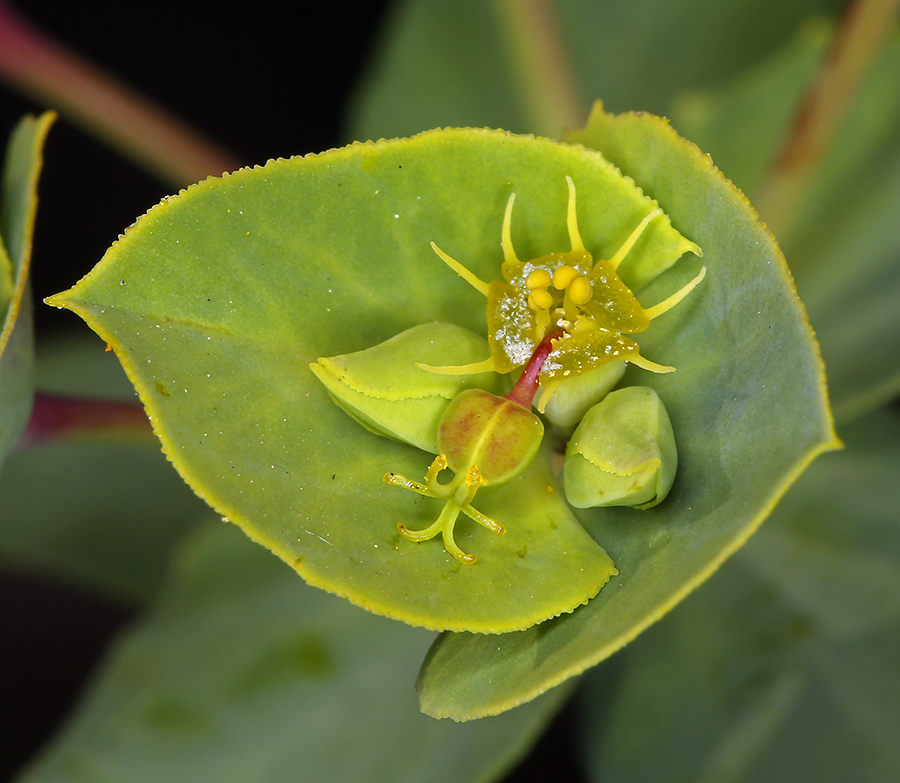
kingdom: Plantae
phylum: Tracheophyta
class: Magnoliopsida
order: Malpighiales
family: Euphorbiaceae
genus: Euphorbia
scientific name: Euphorbia terracina
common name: Geraldton carnation weed
